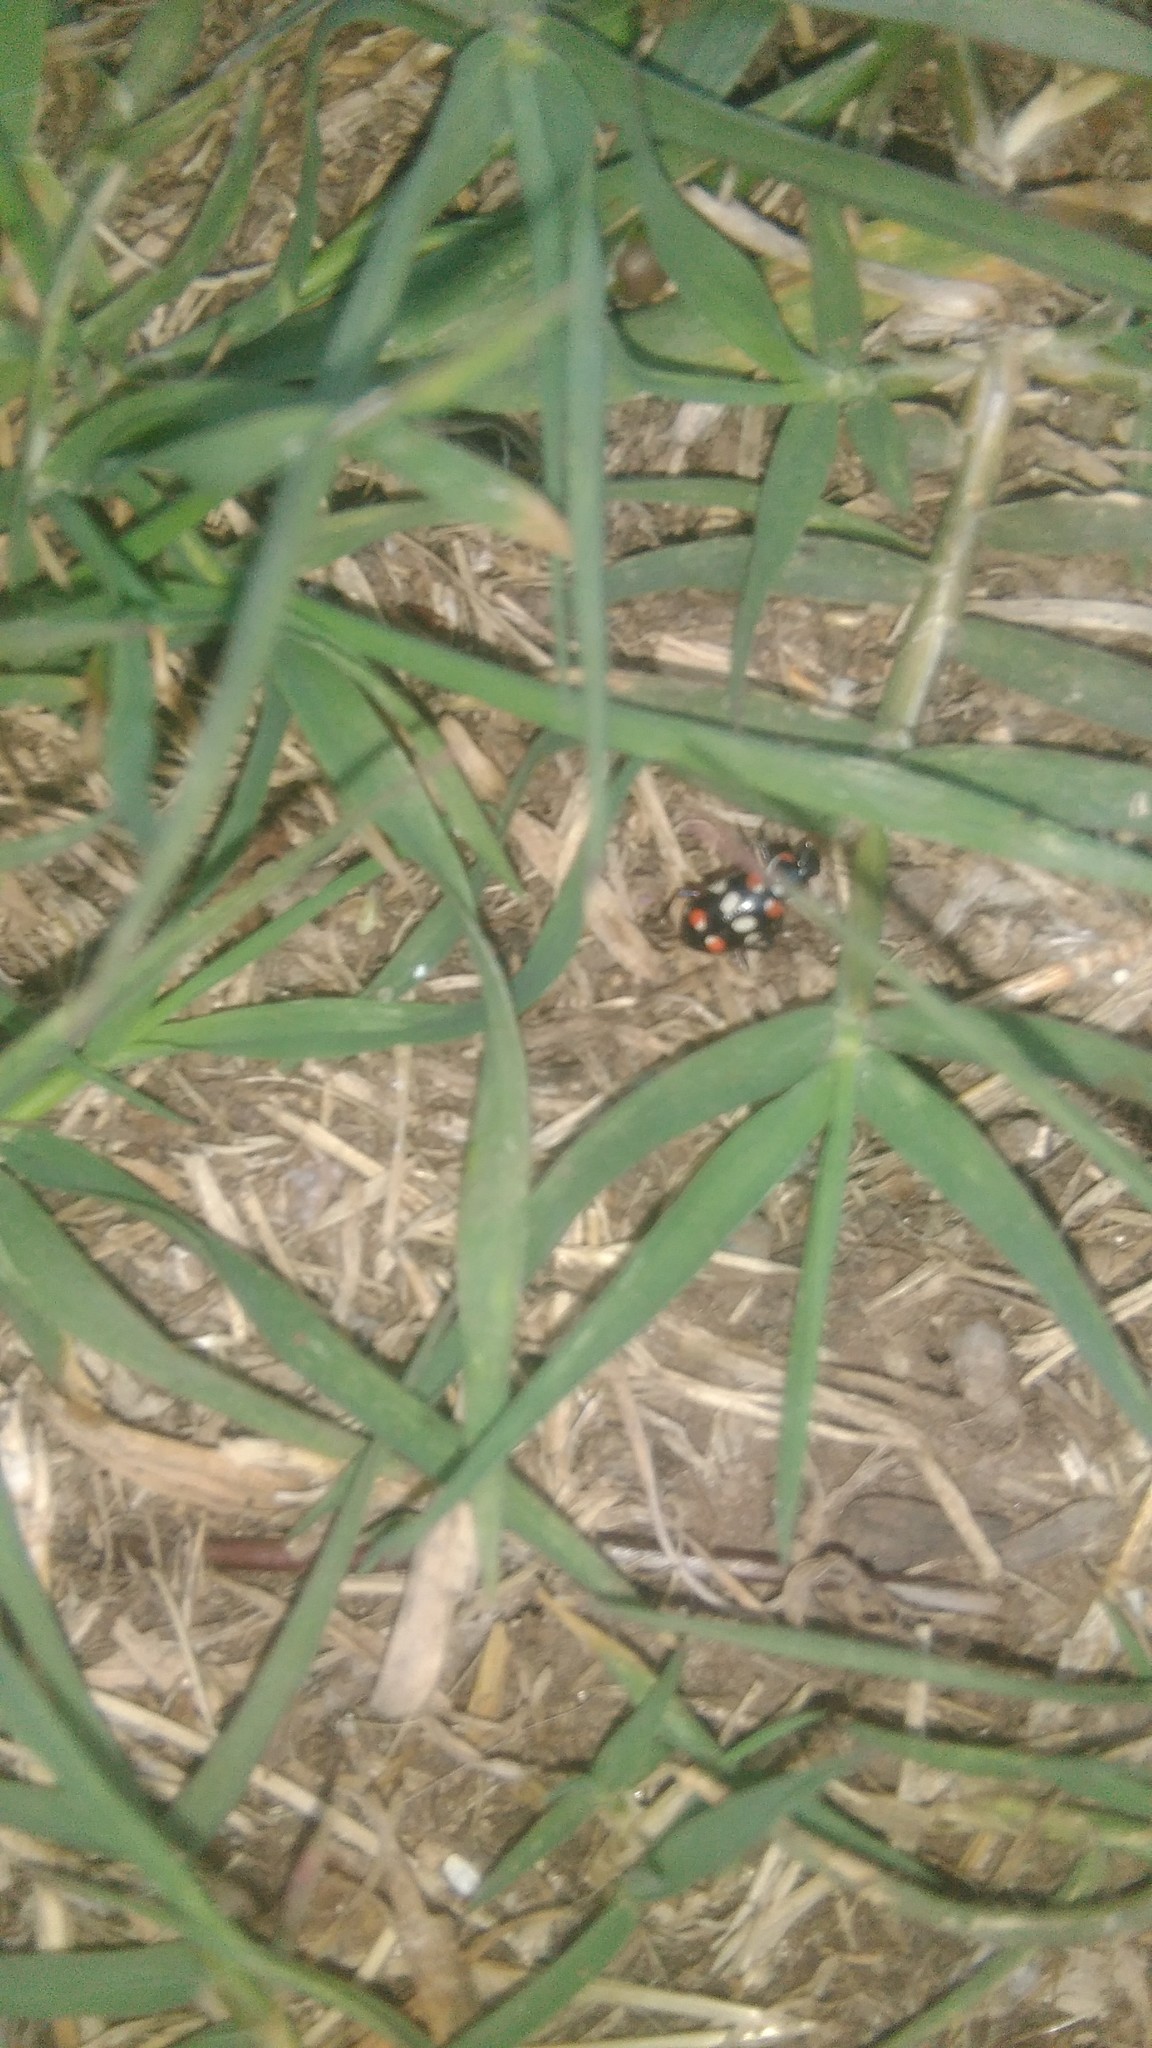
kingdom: Animalia
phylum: Arthropoda
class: Insecta
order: Coleoptera
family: Coccinellidae
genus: Eriopis
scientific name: Eriopis connexa
